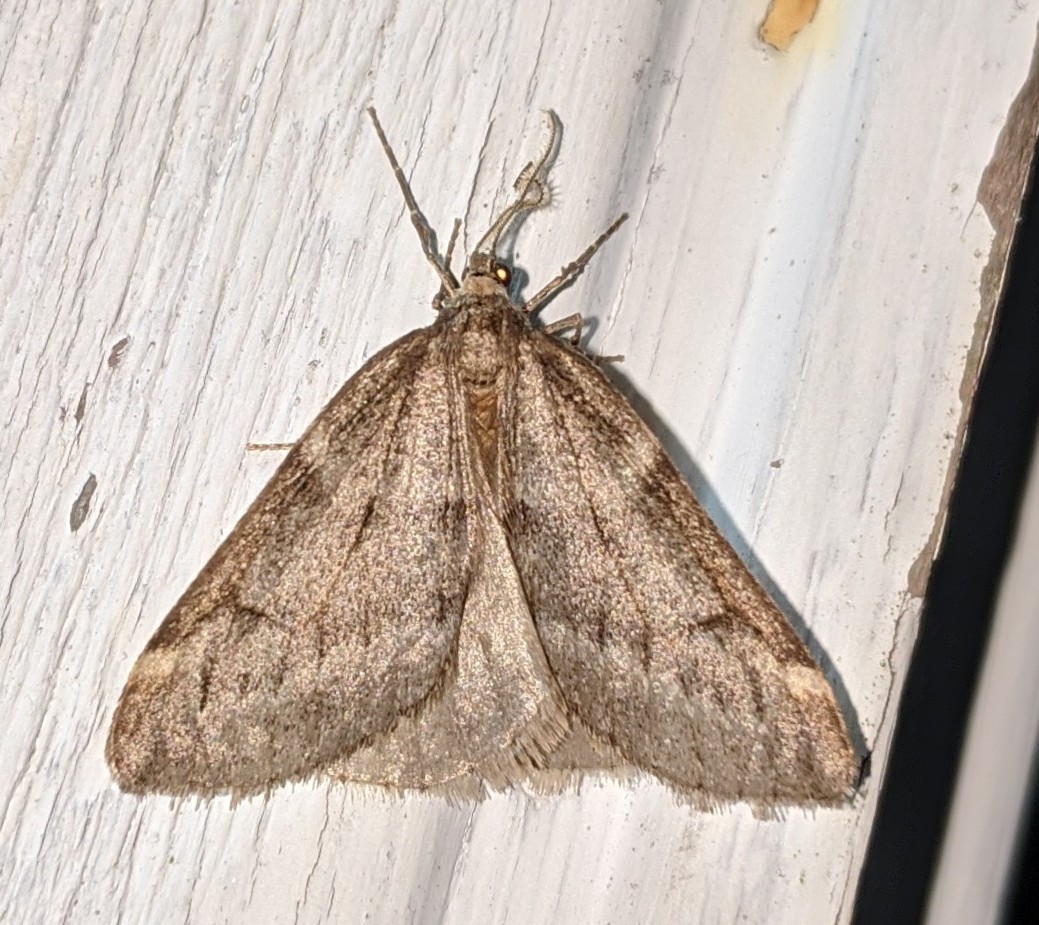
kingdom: Animalia
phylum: Arthropoda
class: Insecta
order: Lepidoptera
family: Geometridae
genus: Alsophila
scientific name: Alsophila pometaria
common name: Fall cankerworm
